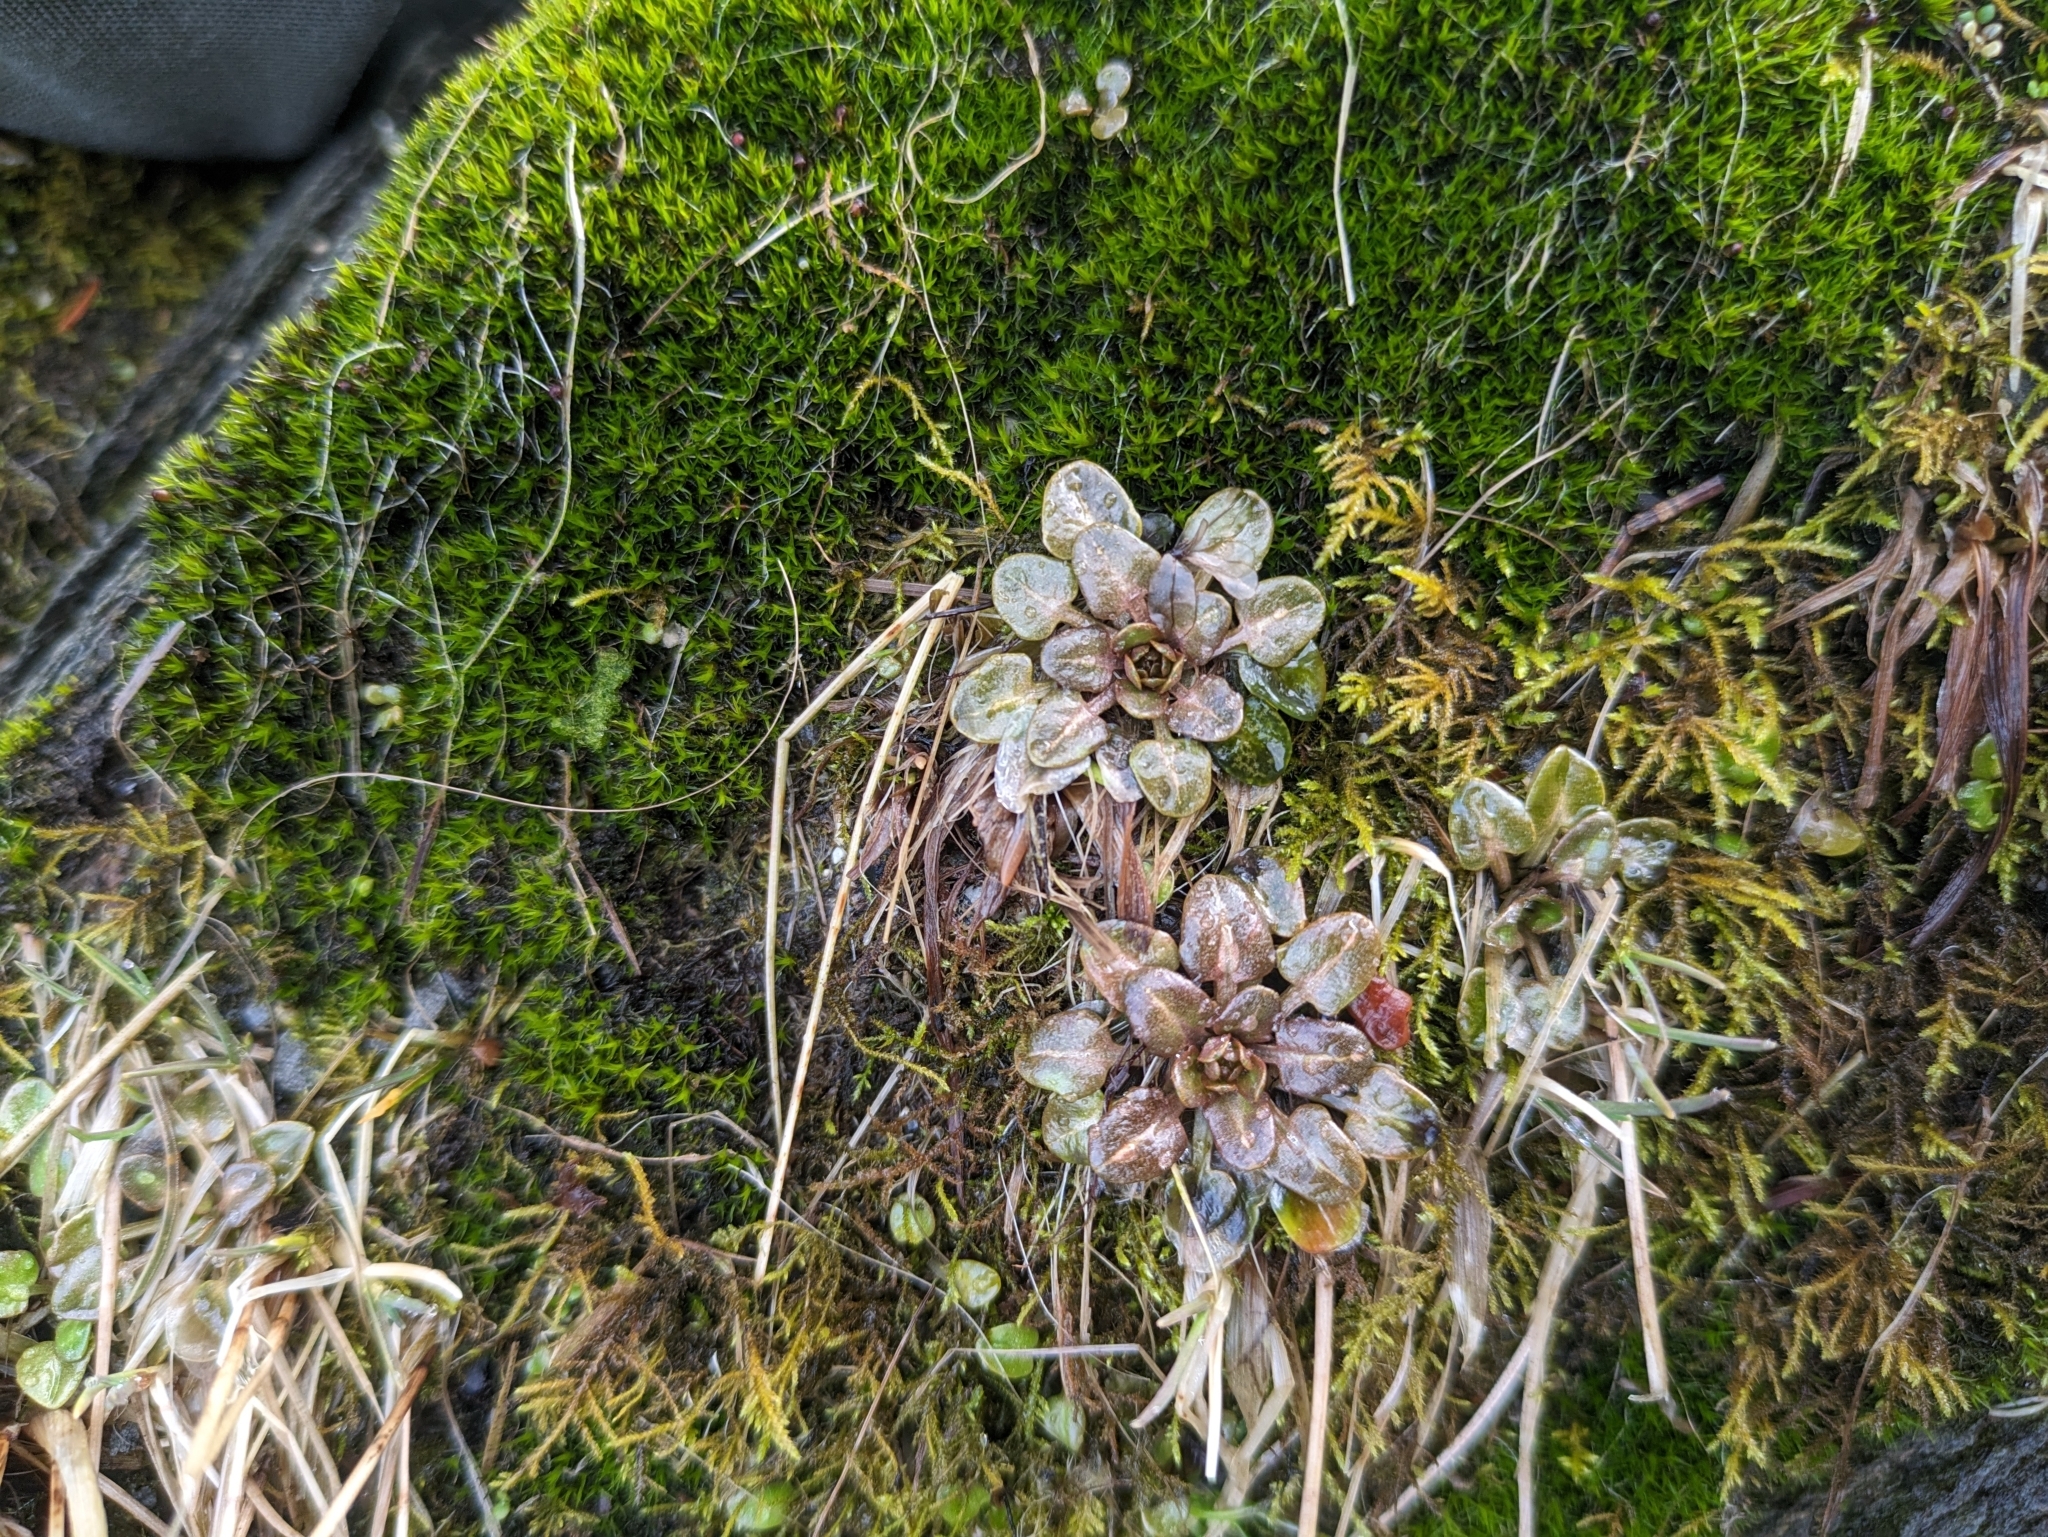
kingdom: Plantae
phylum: Tracheophyta
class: Magnoliopsida
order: Brassicales
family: Brassicaceae
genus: Cochlearia
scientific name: Cochlearia groenlandica
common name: Danish scurvygrass
